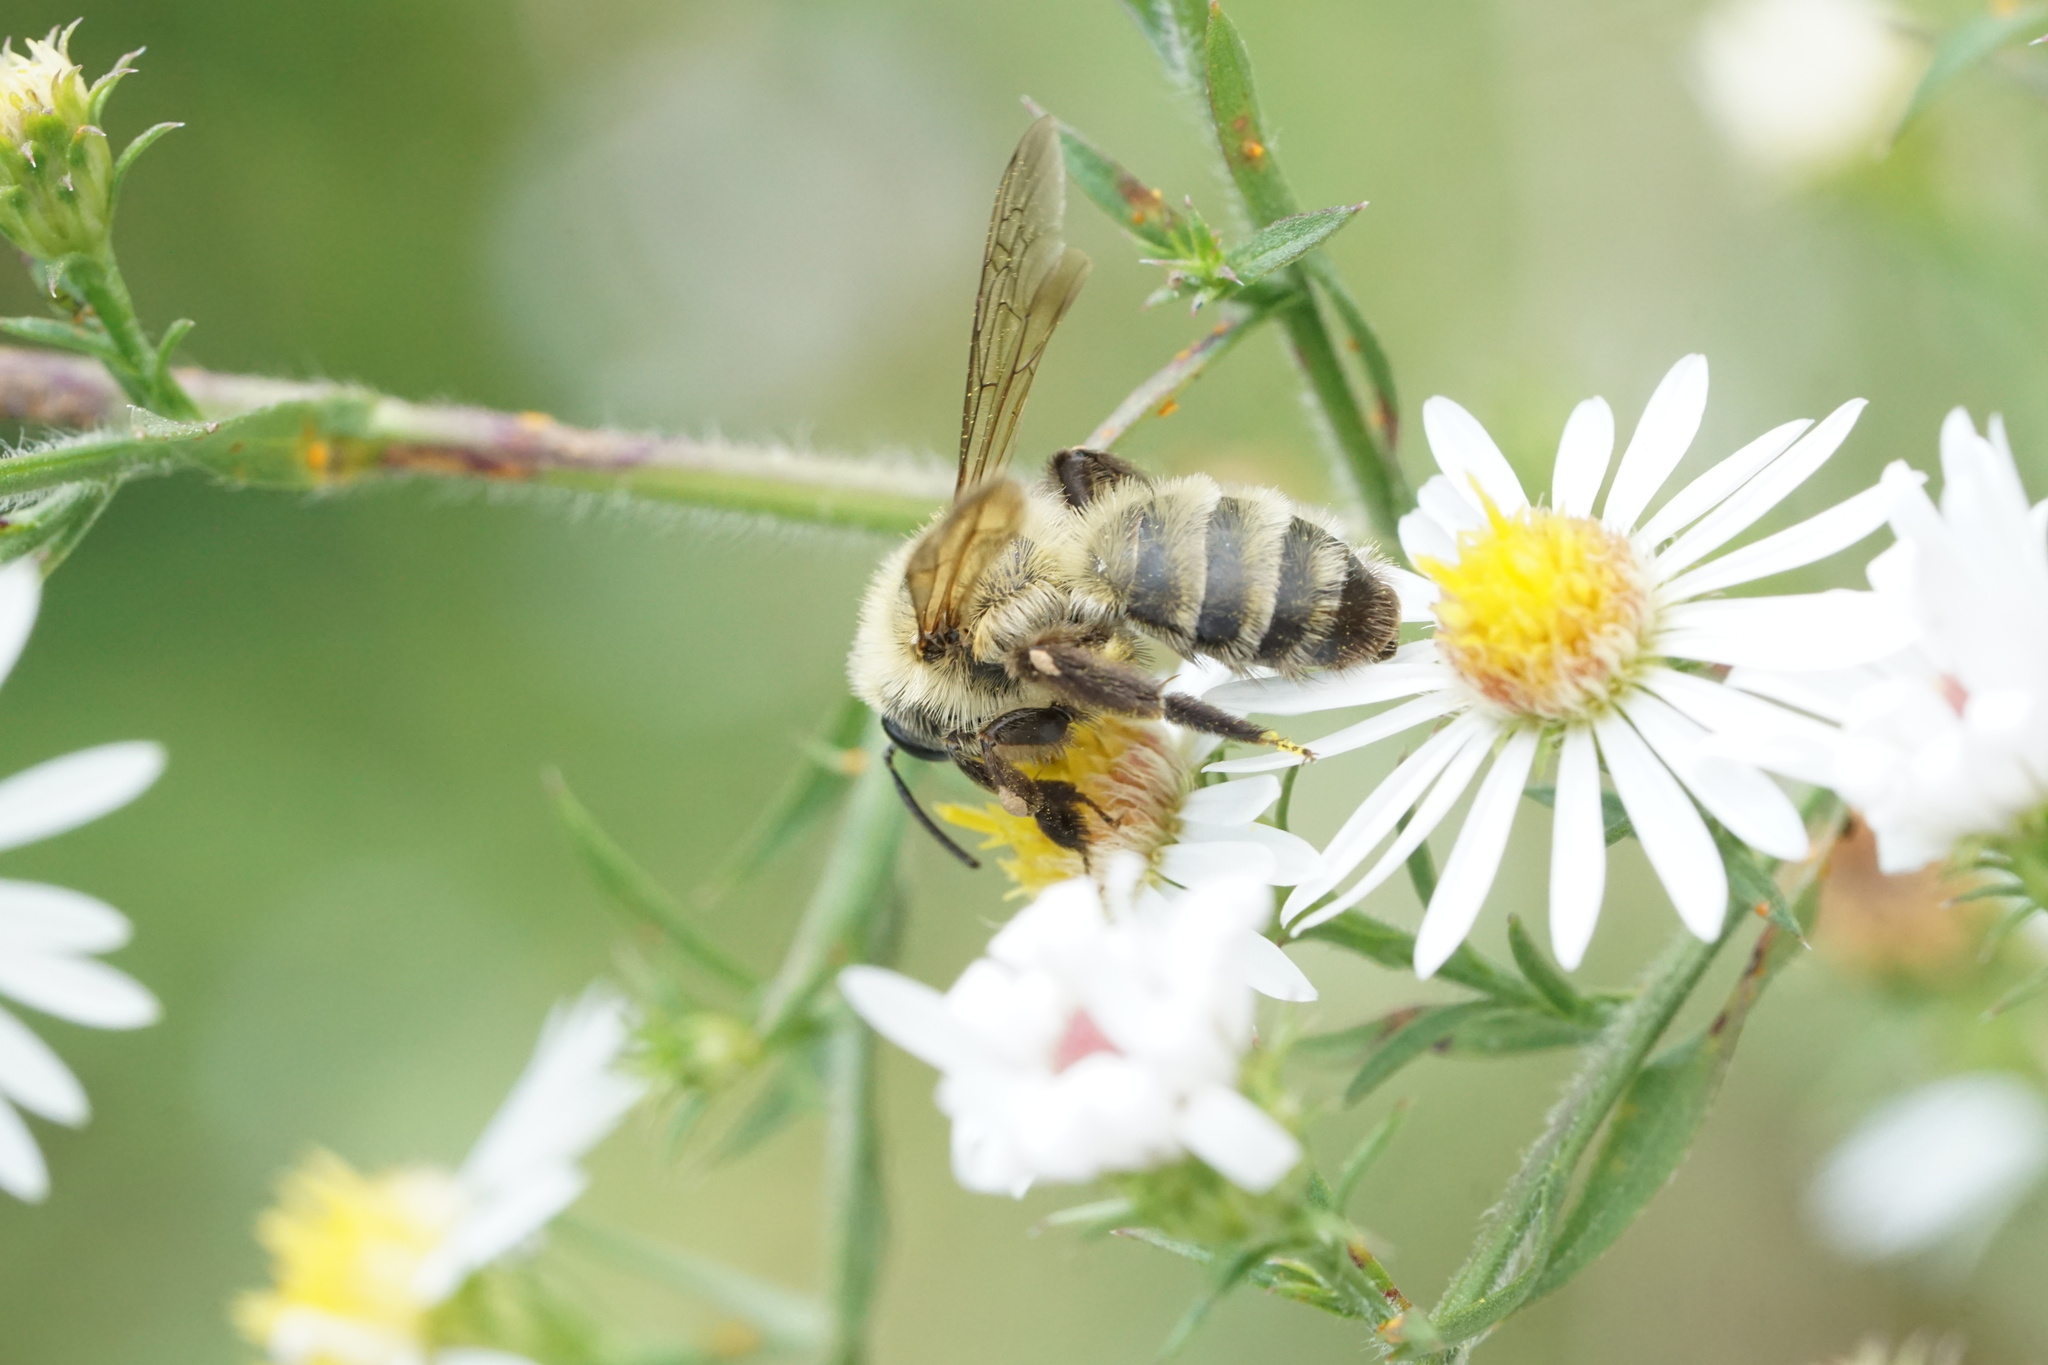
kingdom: Animalia
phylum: Arthropoda
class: Insecta
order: Hymenoptera
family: Andrenidae
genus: Andrena
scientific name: Andrena hirticincta
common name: Hairy-banded mining bee
